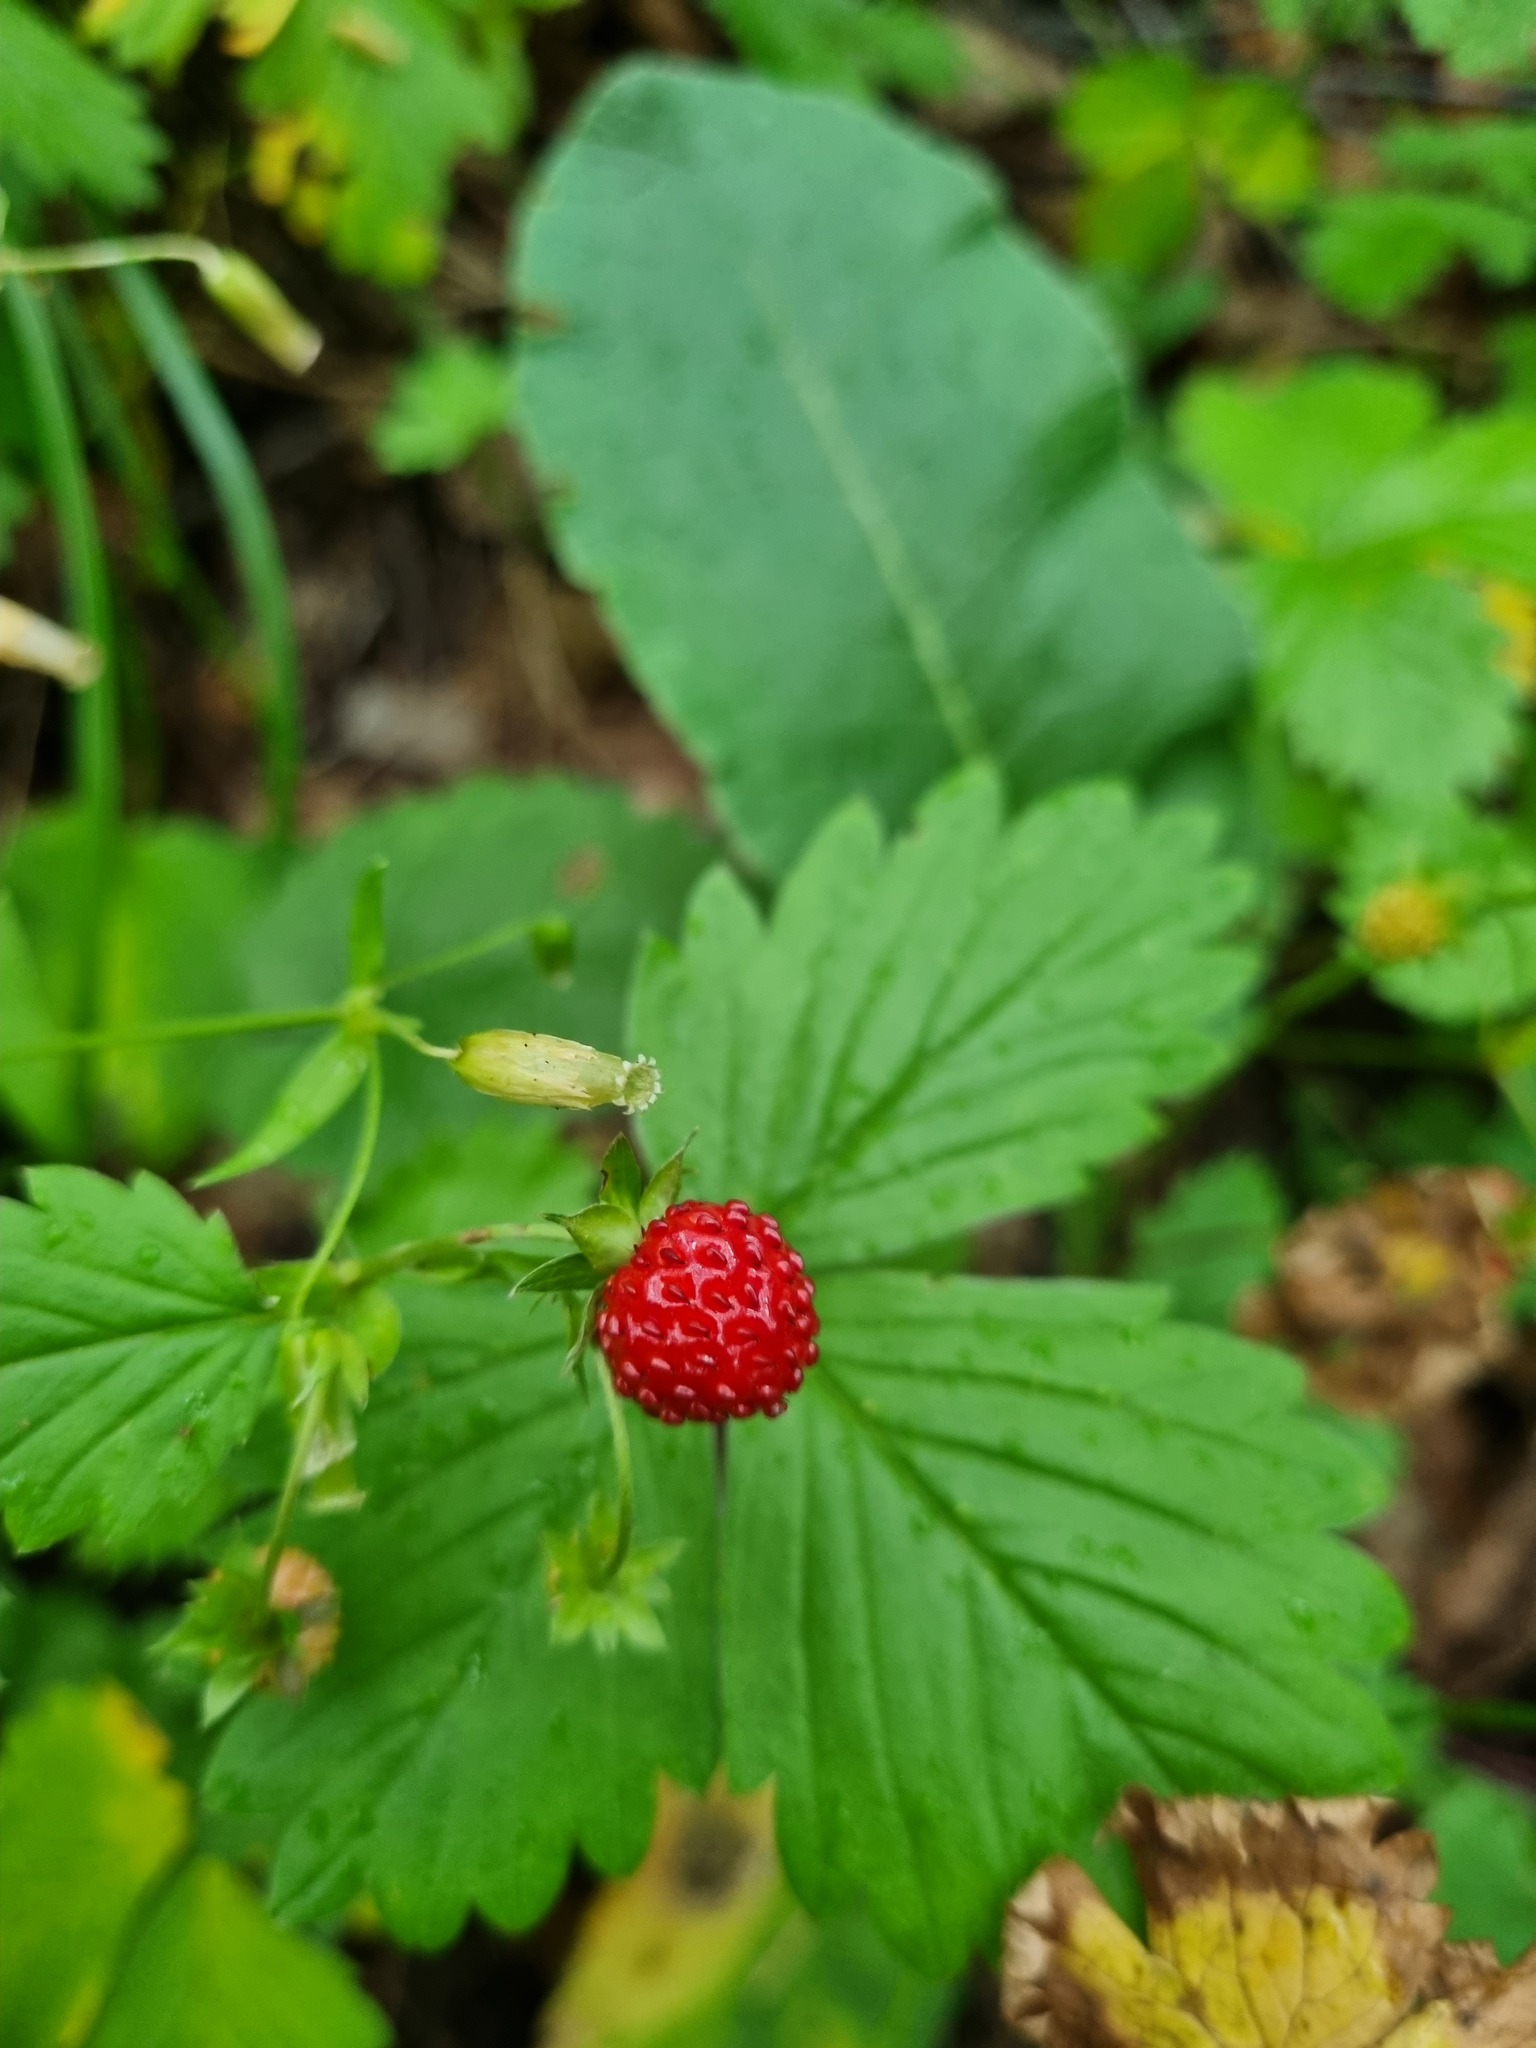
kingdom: Plantae
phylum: Tracheophyta
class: Magnoliopsida
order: Rosales
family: Rosaceae
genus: Fragaria
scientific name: Fragaria vesca
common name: Wild strawberry
